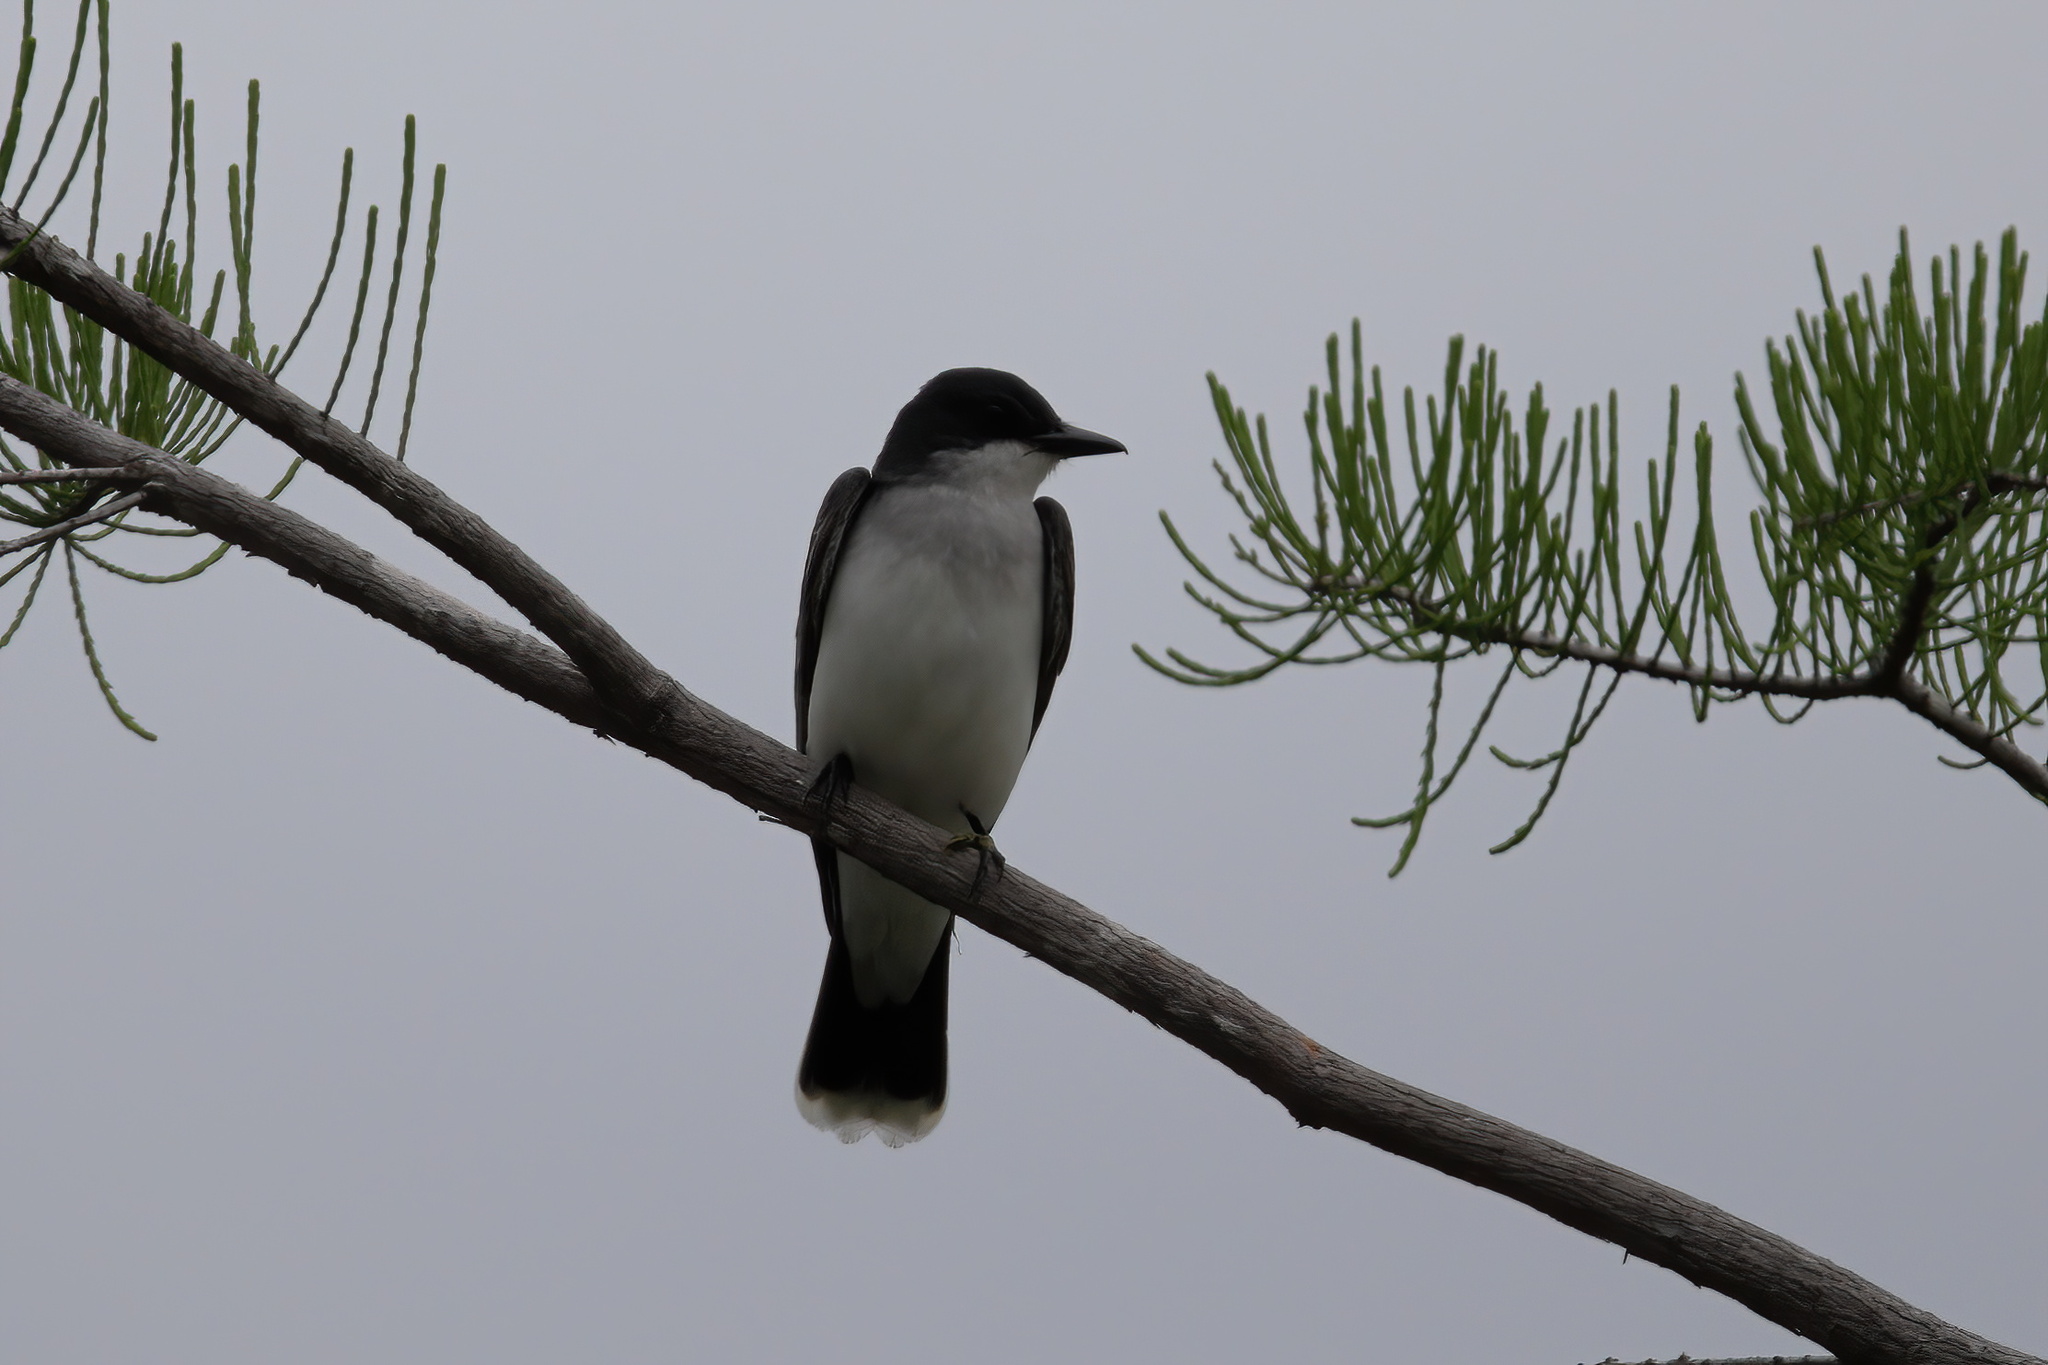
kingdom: Animalia
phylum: Chordata
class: Aves
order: Passeriformes
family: Tyrannidae
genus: Tyrannus
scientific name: Tyrannus tyrannus
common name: Eastern kingbird
